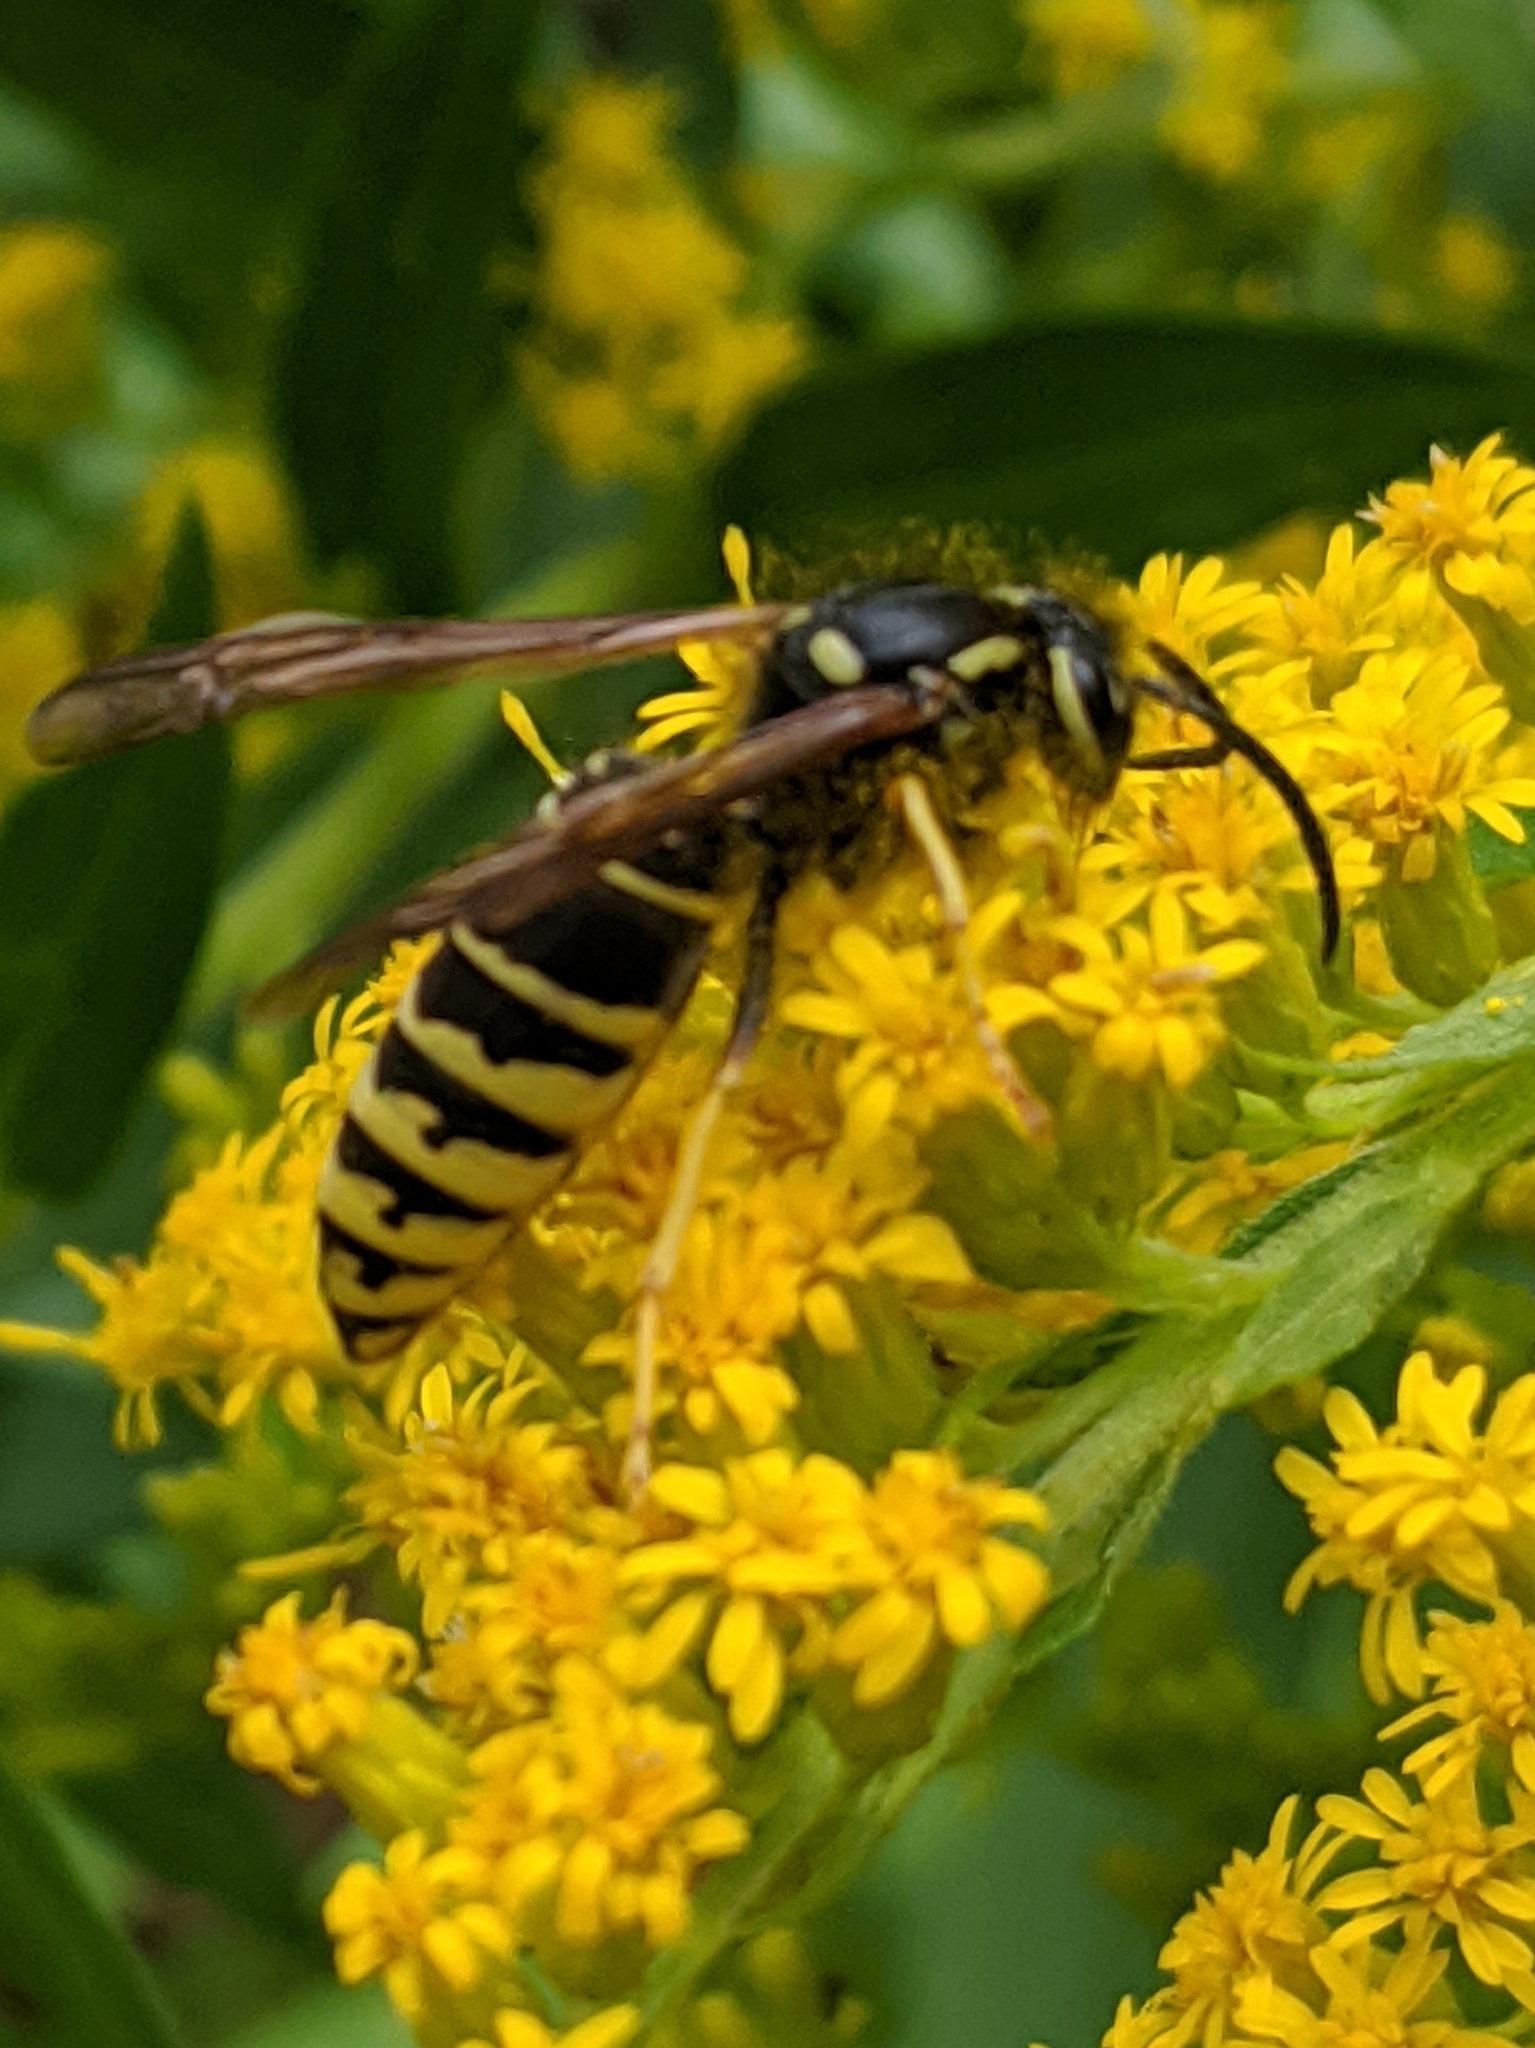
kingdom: Animalia
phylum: Arthropoda
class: Insecta
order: Hymenoptera
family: Vespidae
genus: Vespula
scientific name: Vespula vidua
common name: Widow yellowjacket
